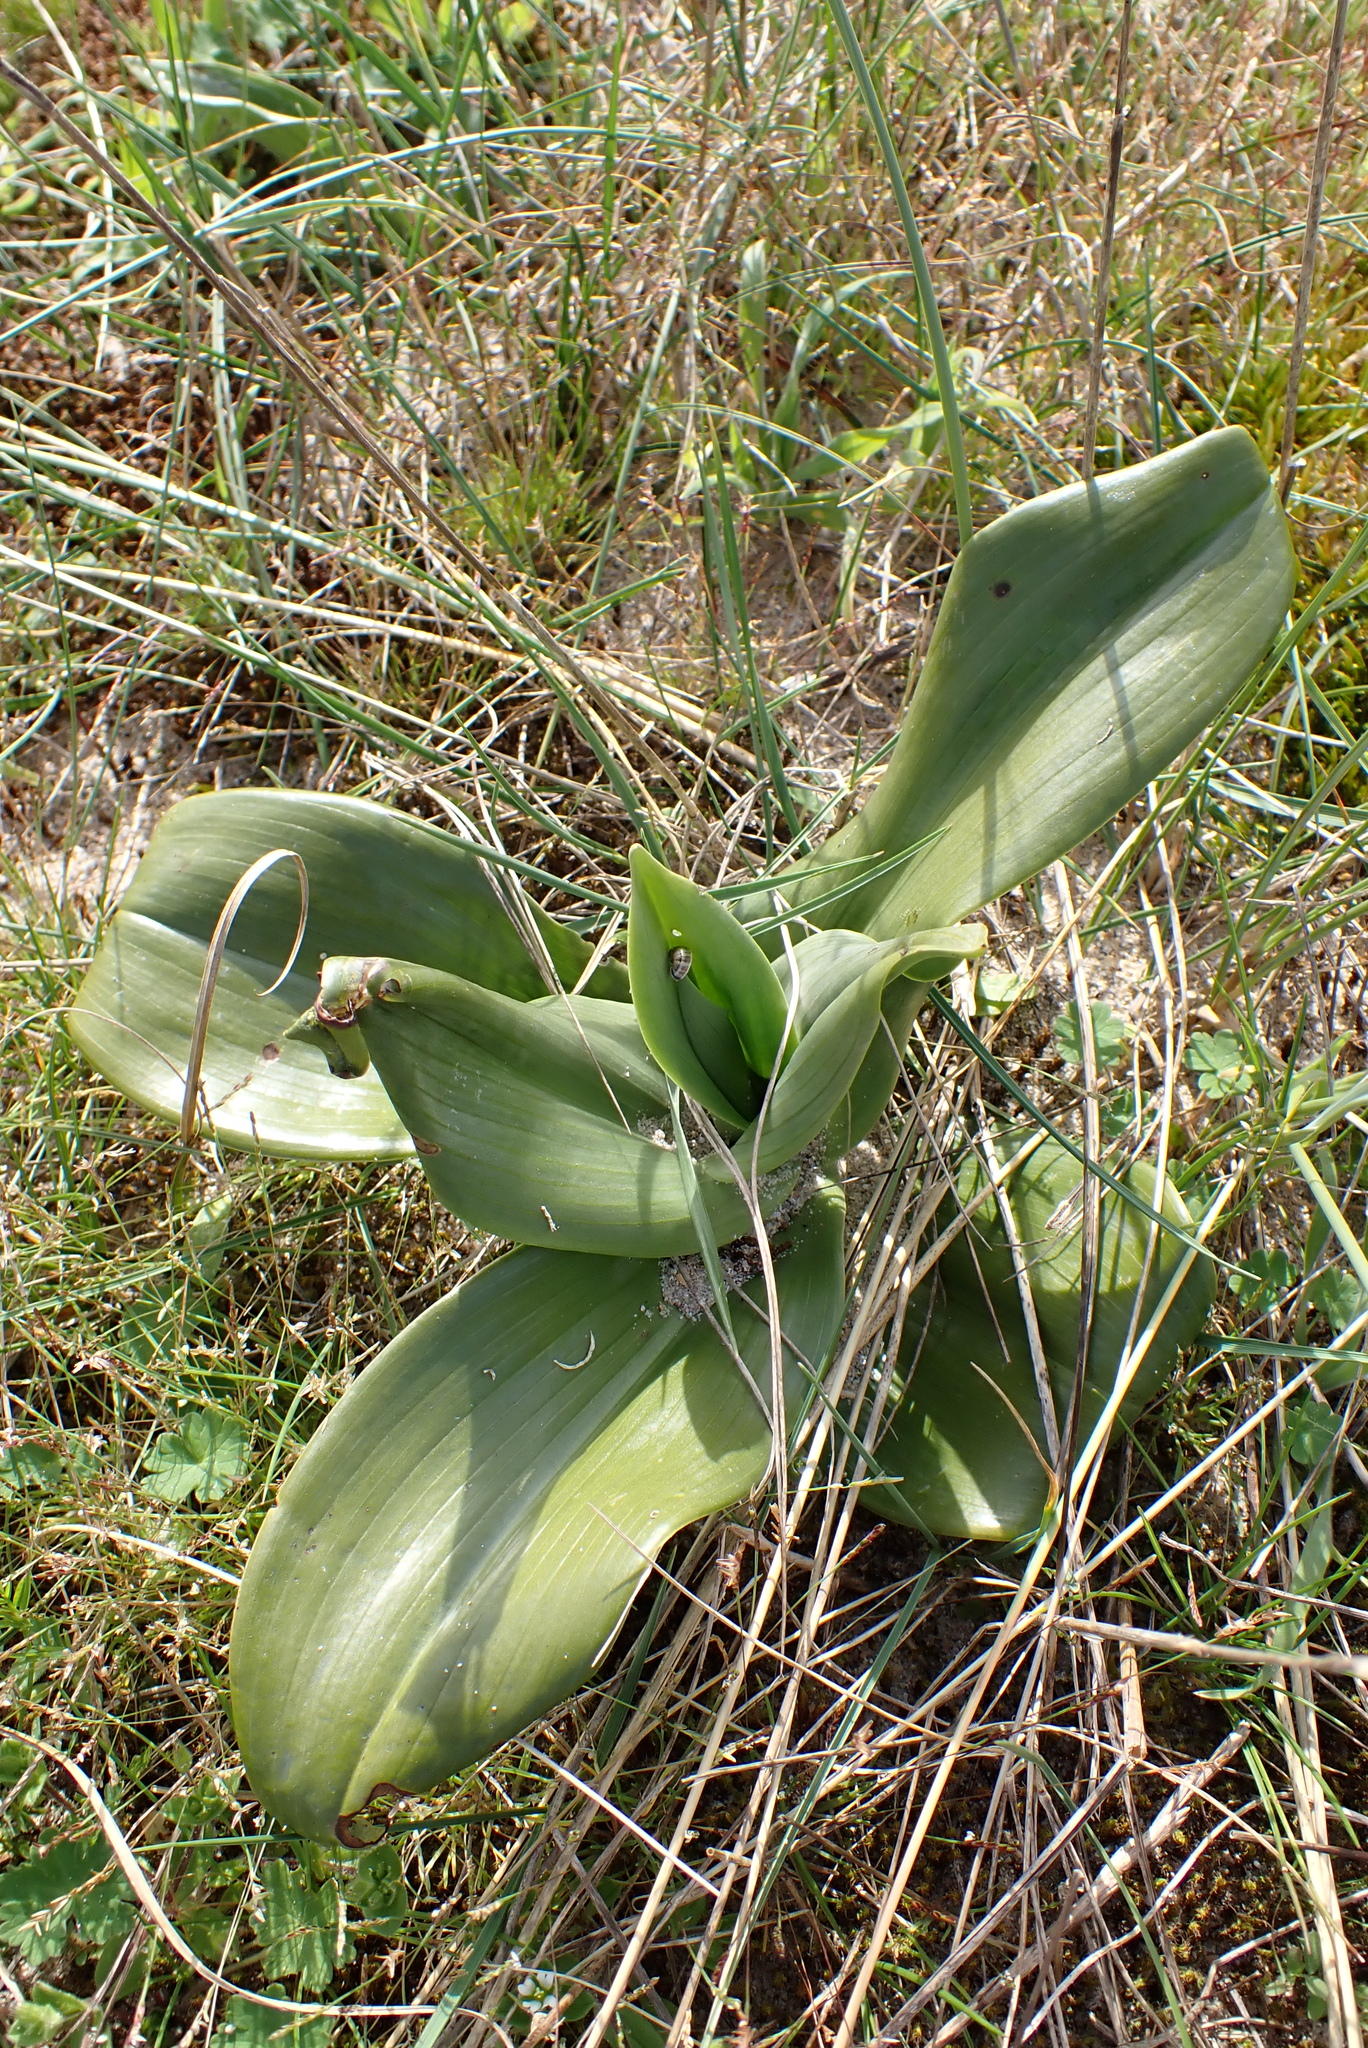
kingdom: Plantae
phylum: Tracheophyta
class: Liliopsida
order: Asparagales
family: Orchidaceae
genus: Himantoglossum
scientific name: Himantoglossum hircinum
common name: Lizard orchid
